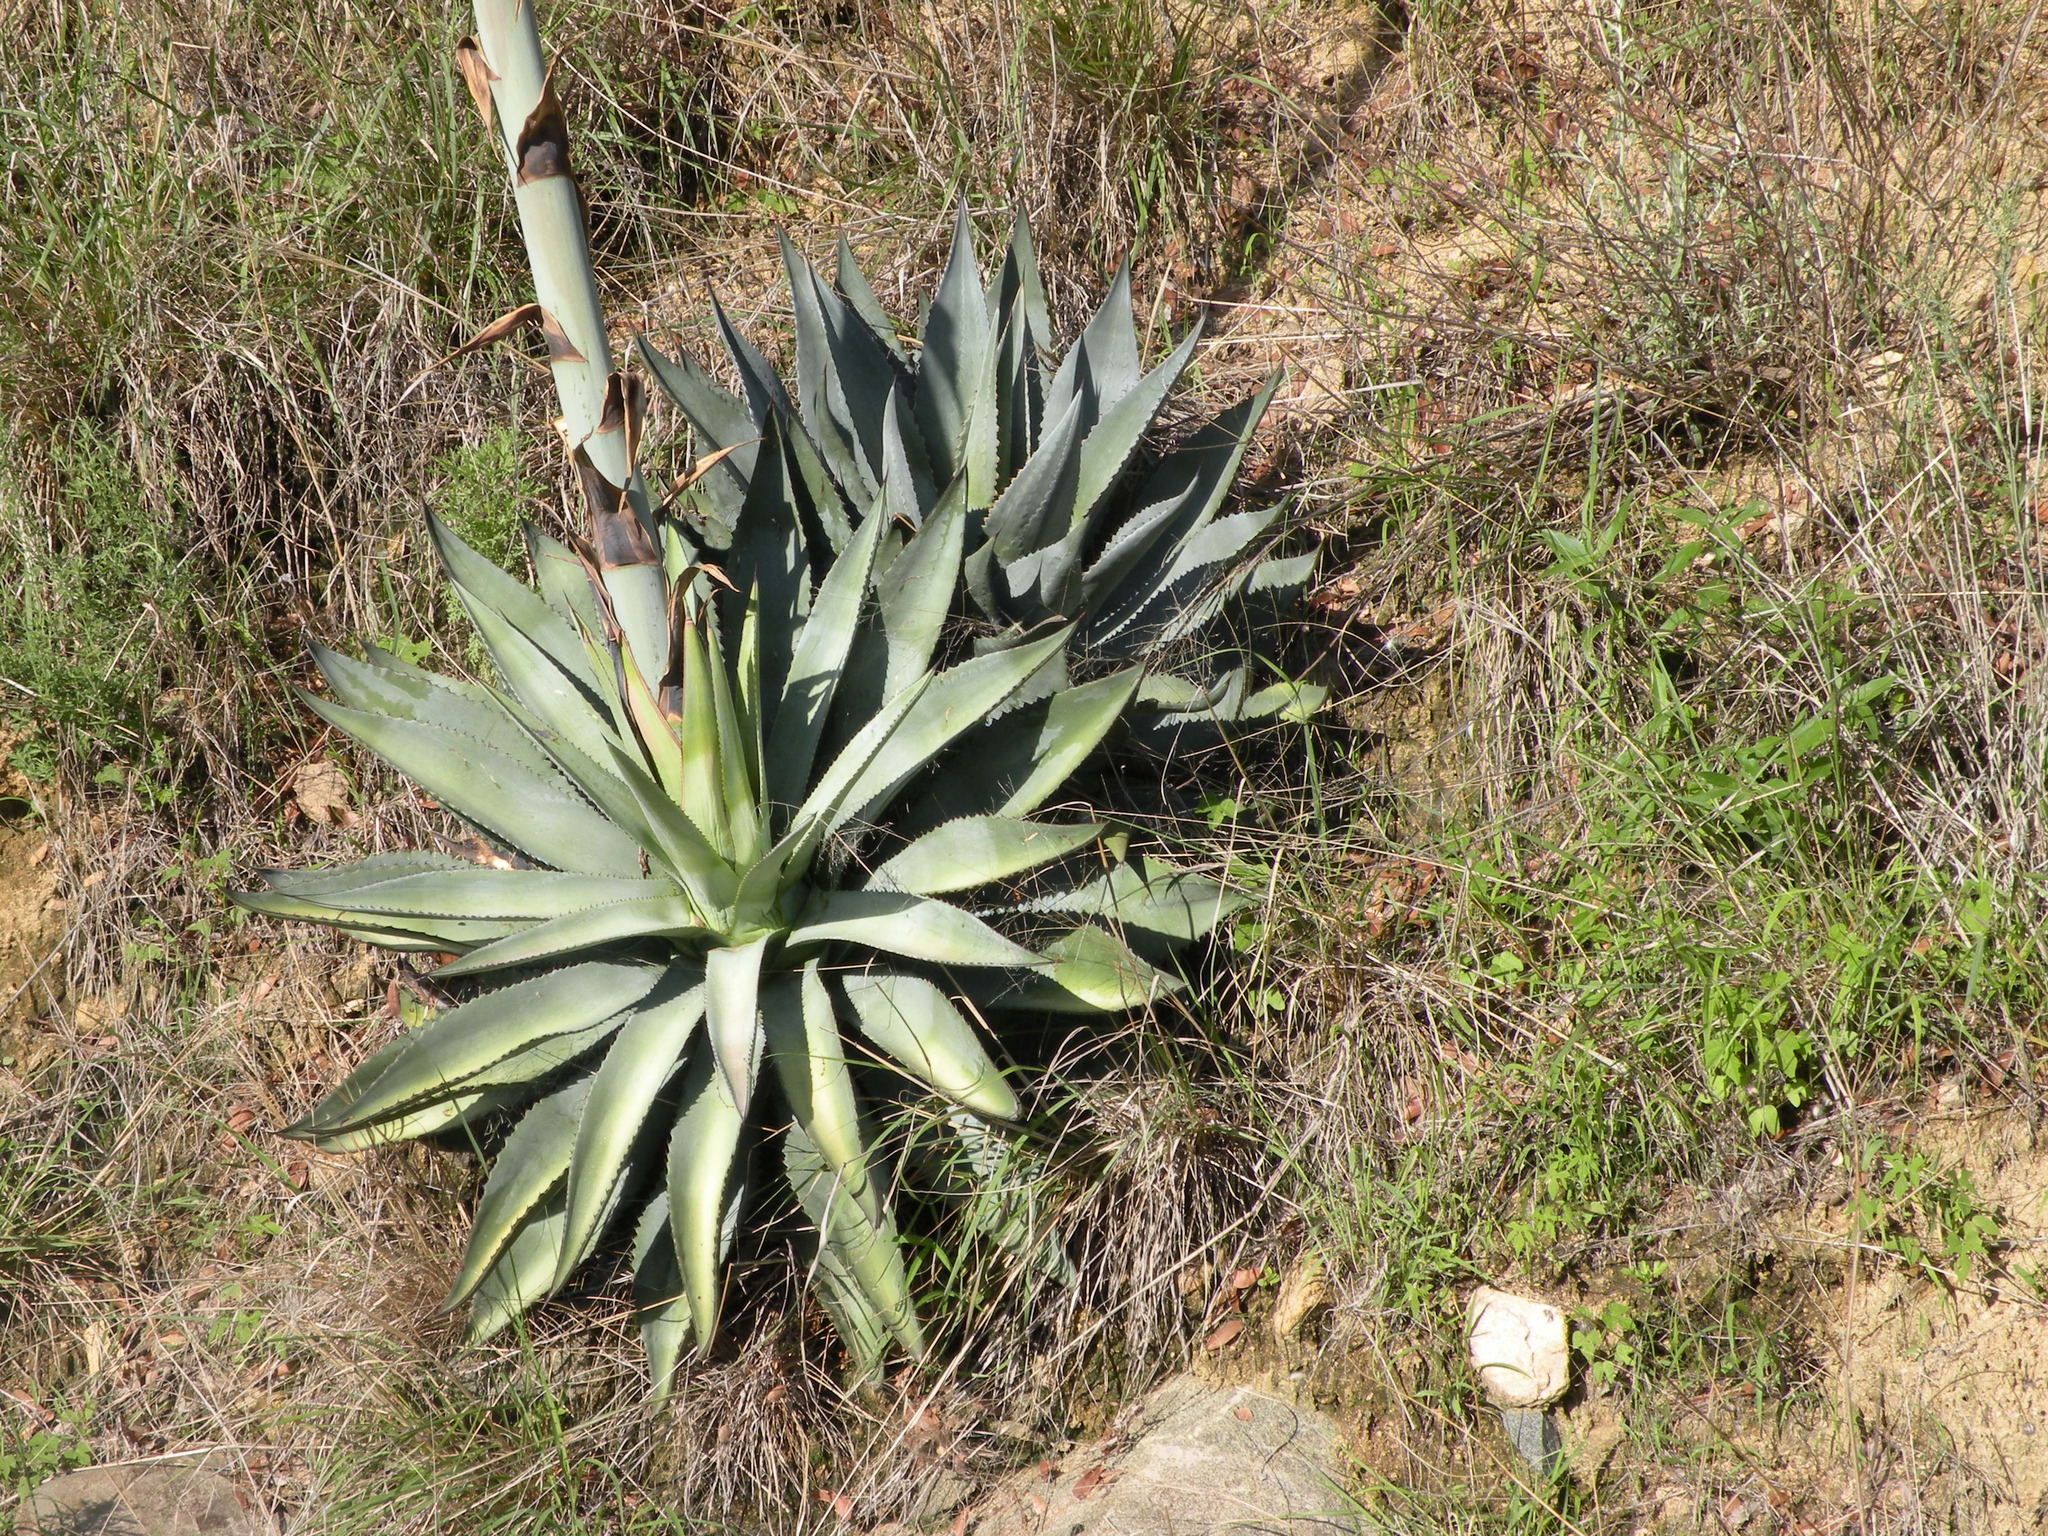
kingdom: Plantae
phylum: Tracheophyta
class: Liliopsida
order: Asparagales
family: Asparagaceae
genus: Agave
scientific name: Agave palmeri
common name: Palmer agave
